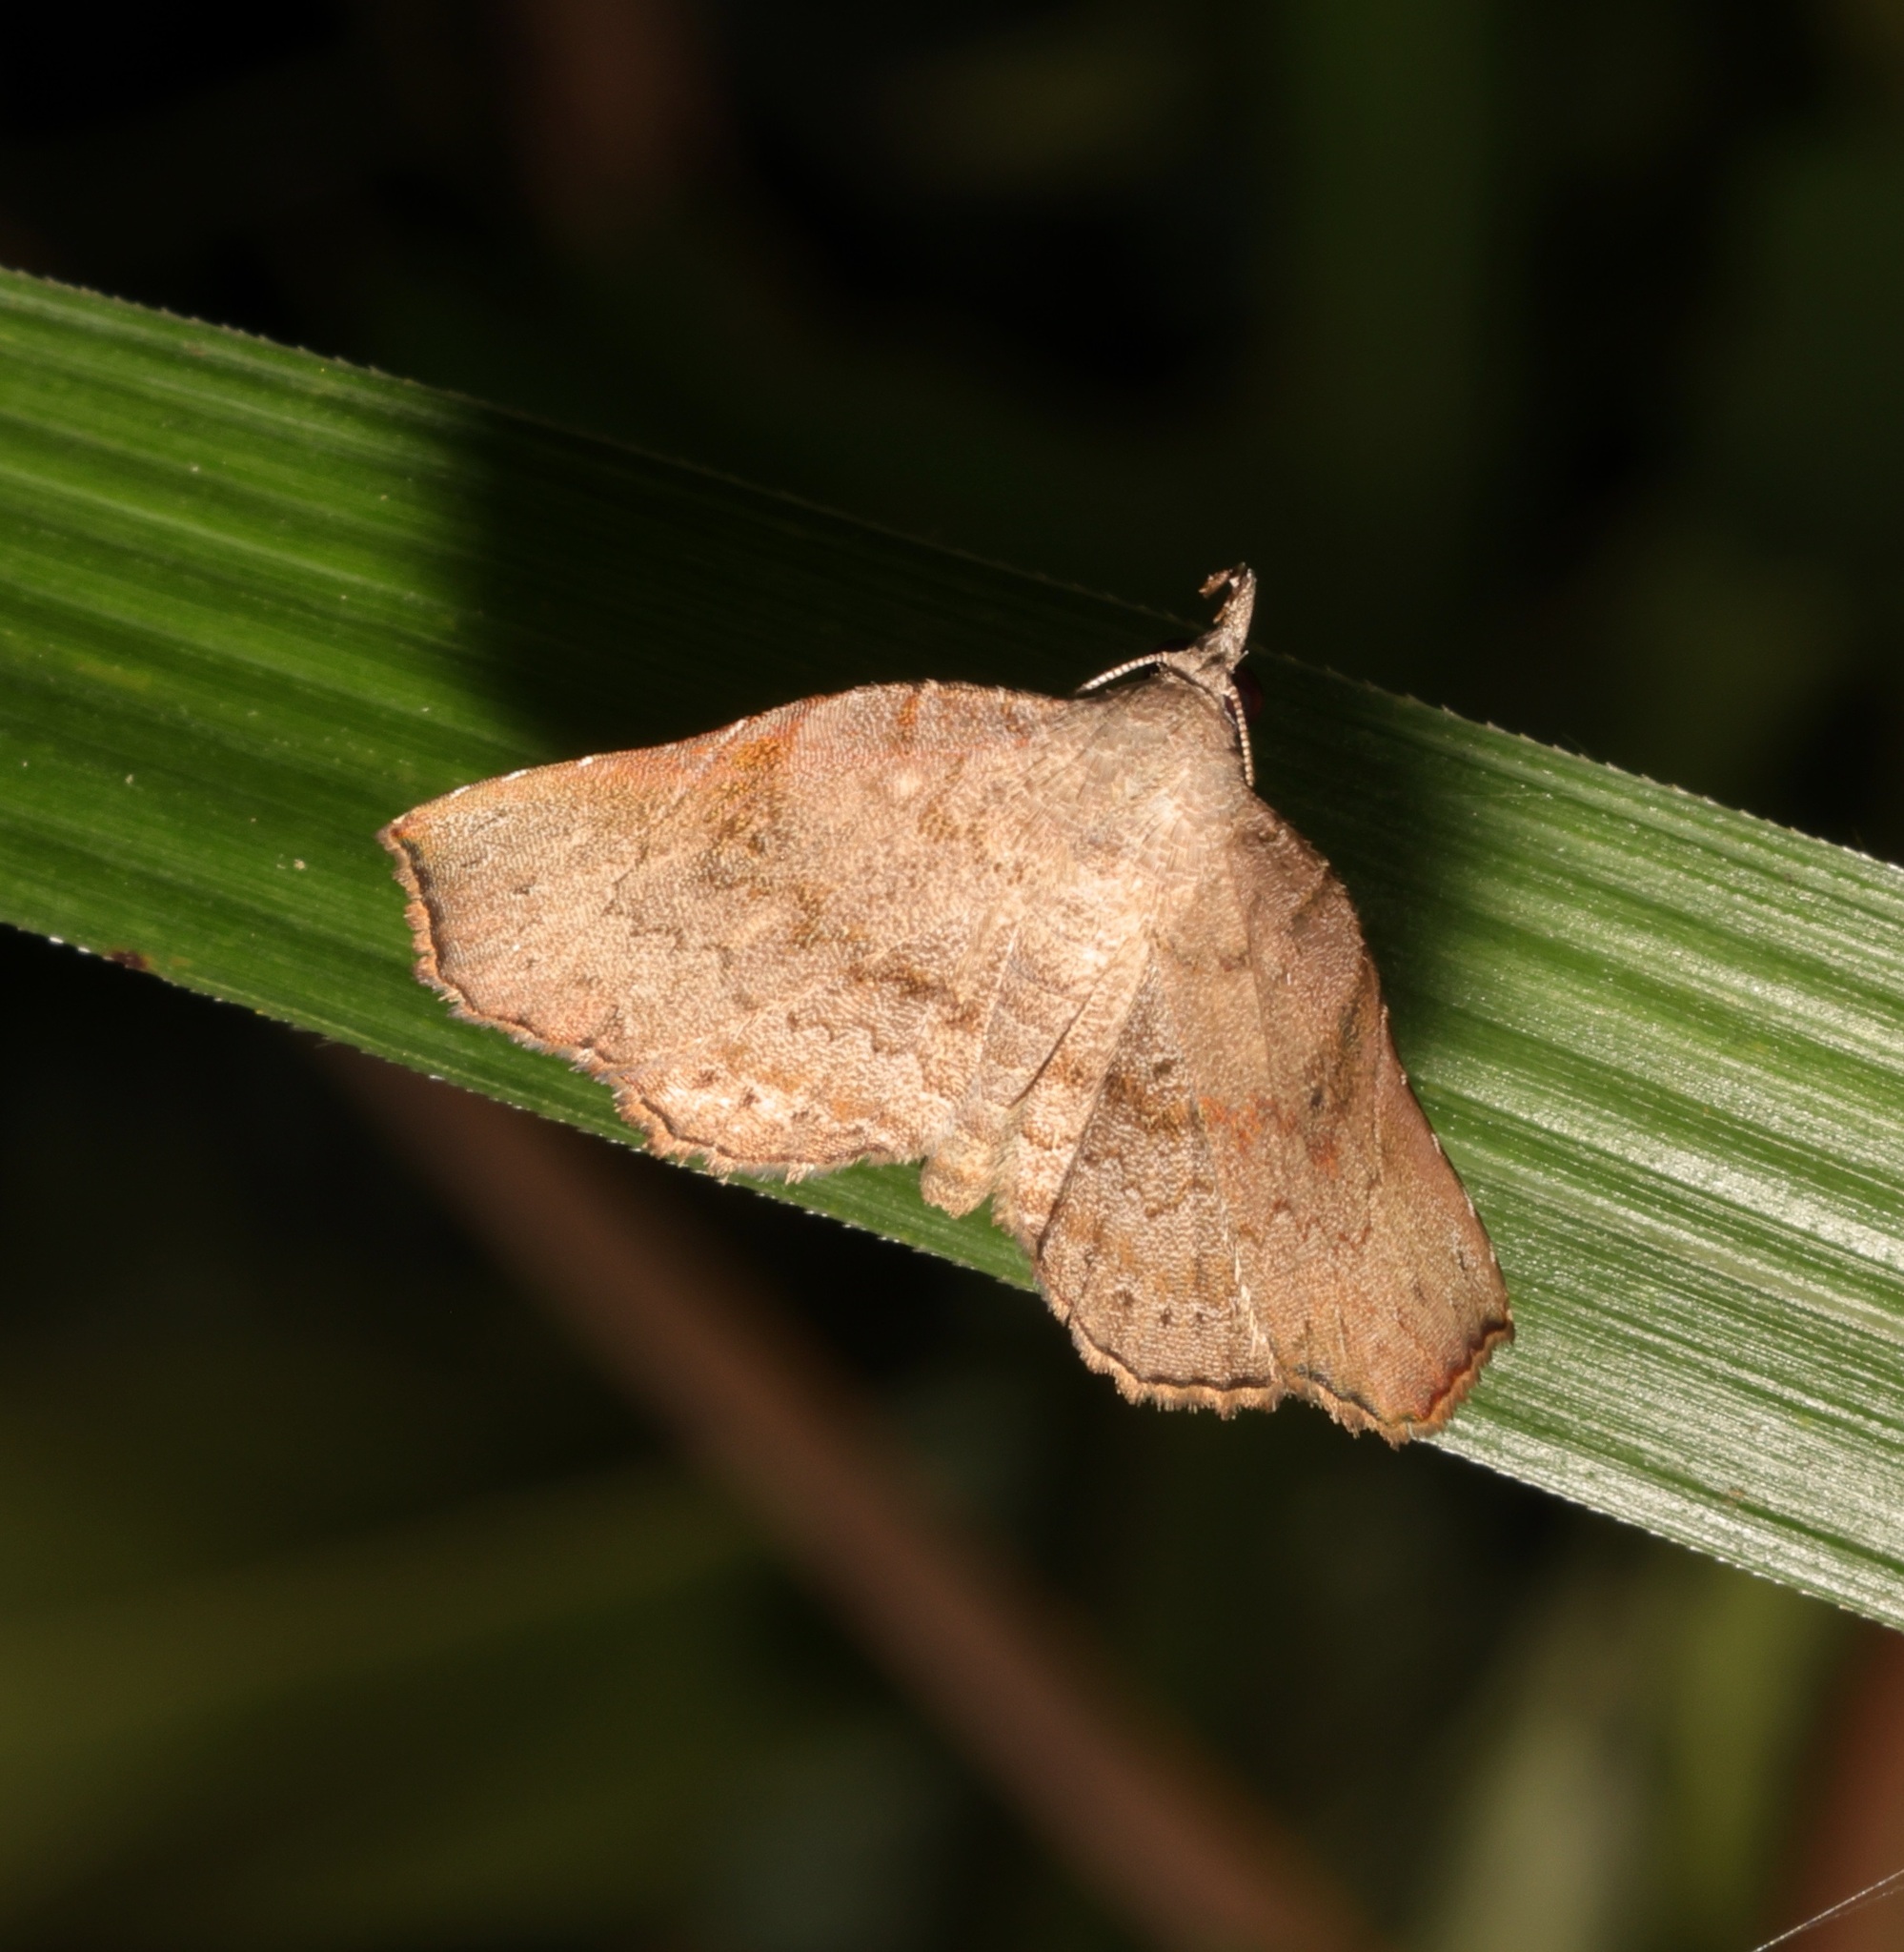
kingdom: Animalia
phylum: Arthropoda
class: Insecta
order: Lepidoptera
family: Erebidae
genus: Egnasia
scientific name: Egnasia seclusalis
